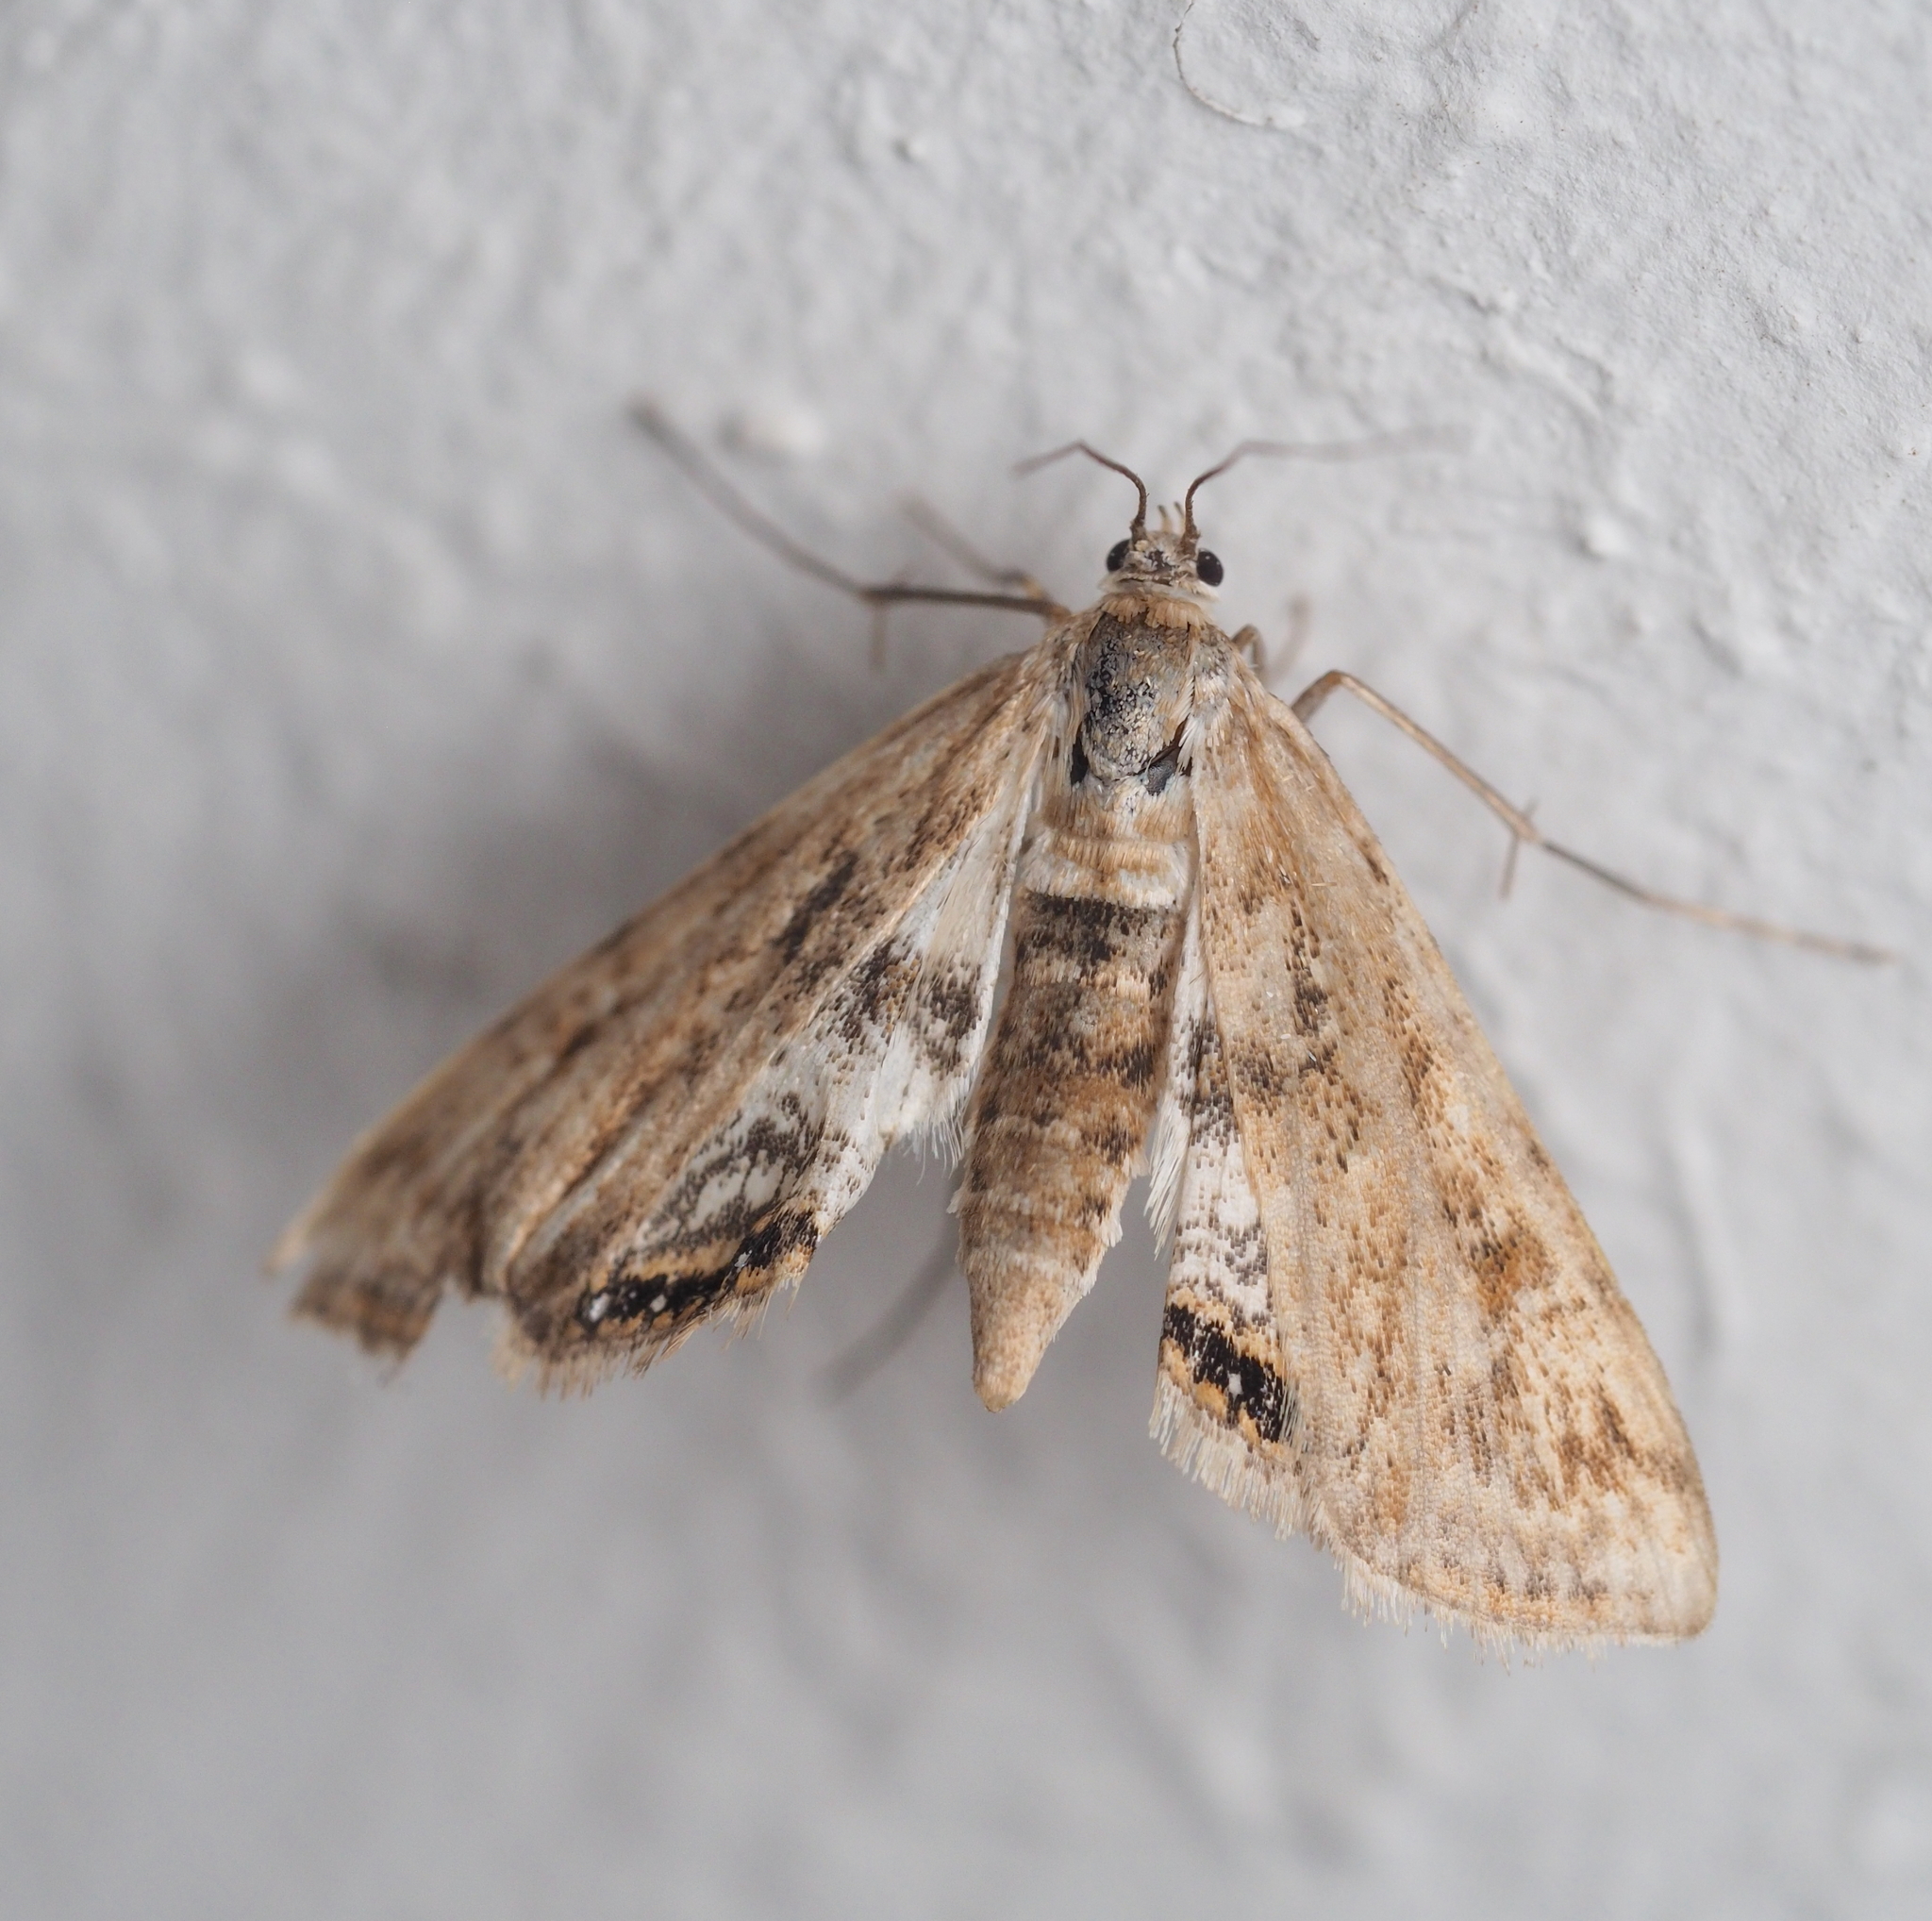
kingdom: Animalia
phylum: Arthropoda
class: Insecta
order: Lepidoptera
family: Crambidae
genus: Cataclysta
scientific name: Cataclysta lemnata
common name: Small china-mark
